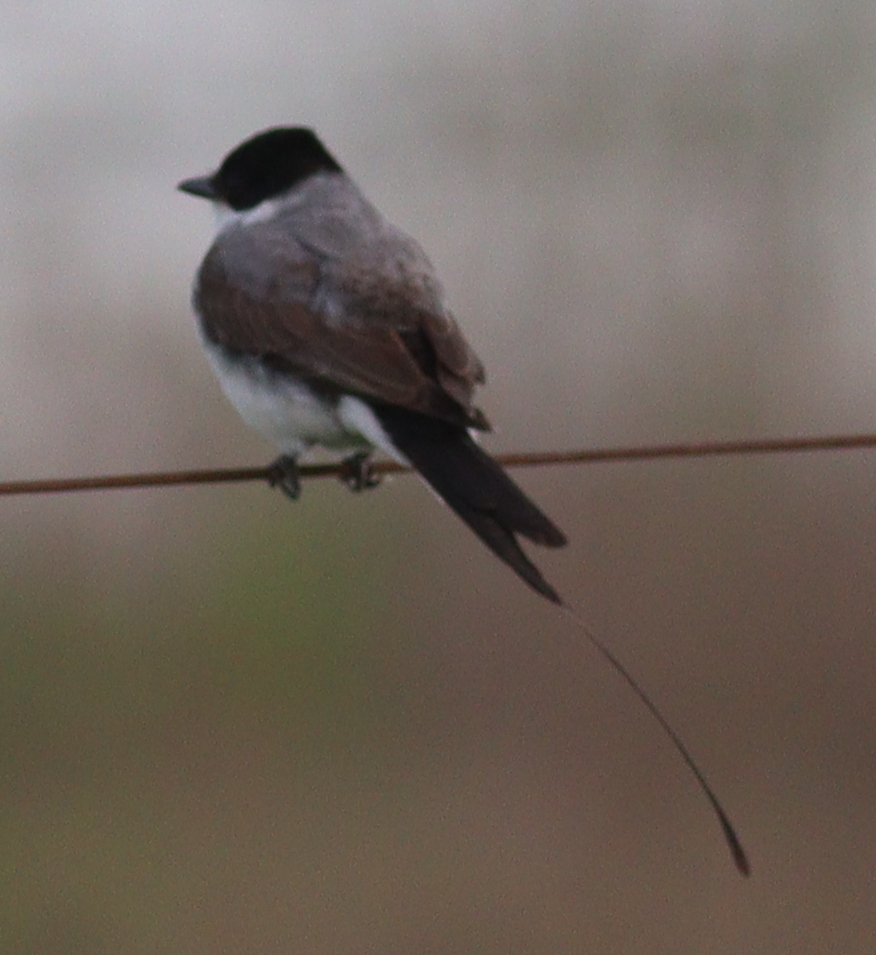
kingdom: Animalia
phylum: Chordata
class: Aves
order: Passeriformes
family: Tyrannidae
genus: Tyrannus
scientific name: Tyrannus savana
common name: Fork-tailed flycatcher
